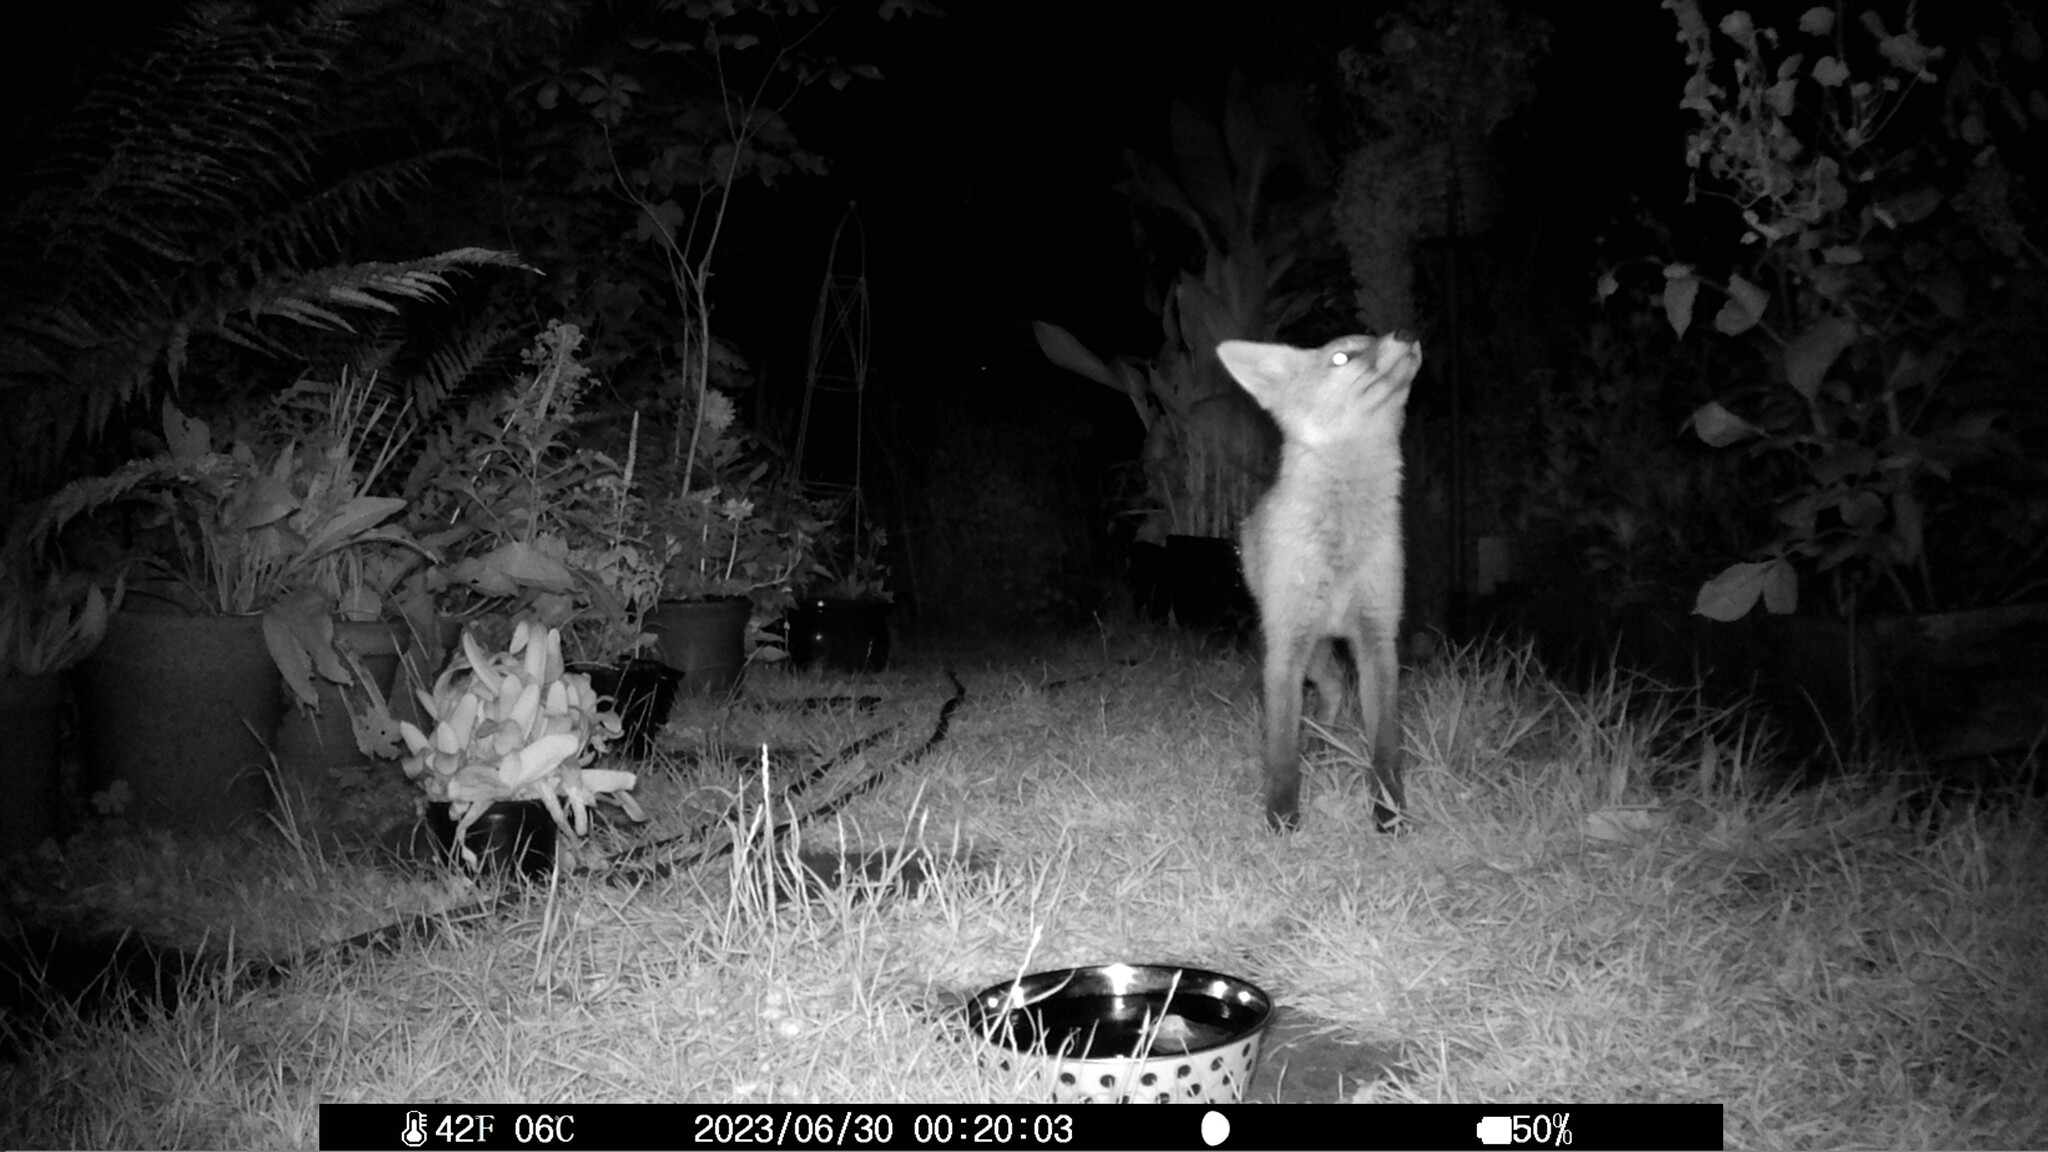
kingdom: Animalia
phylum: Chordata
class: Mammalia
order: Carnivora
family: Canidae
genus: Vulpes
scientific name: Vulpes vulpes
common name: Red fox
